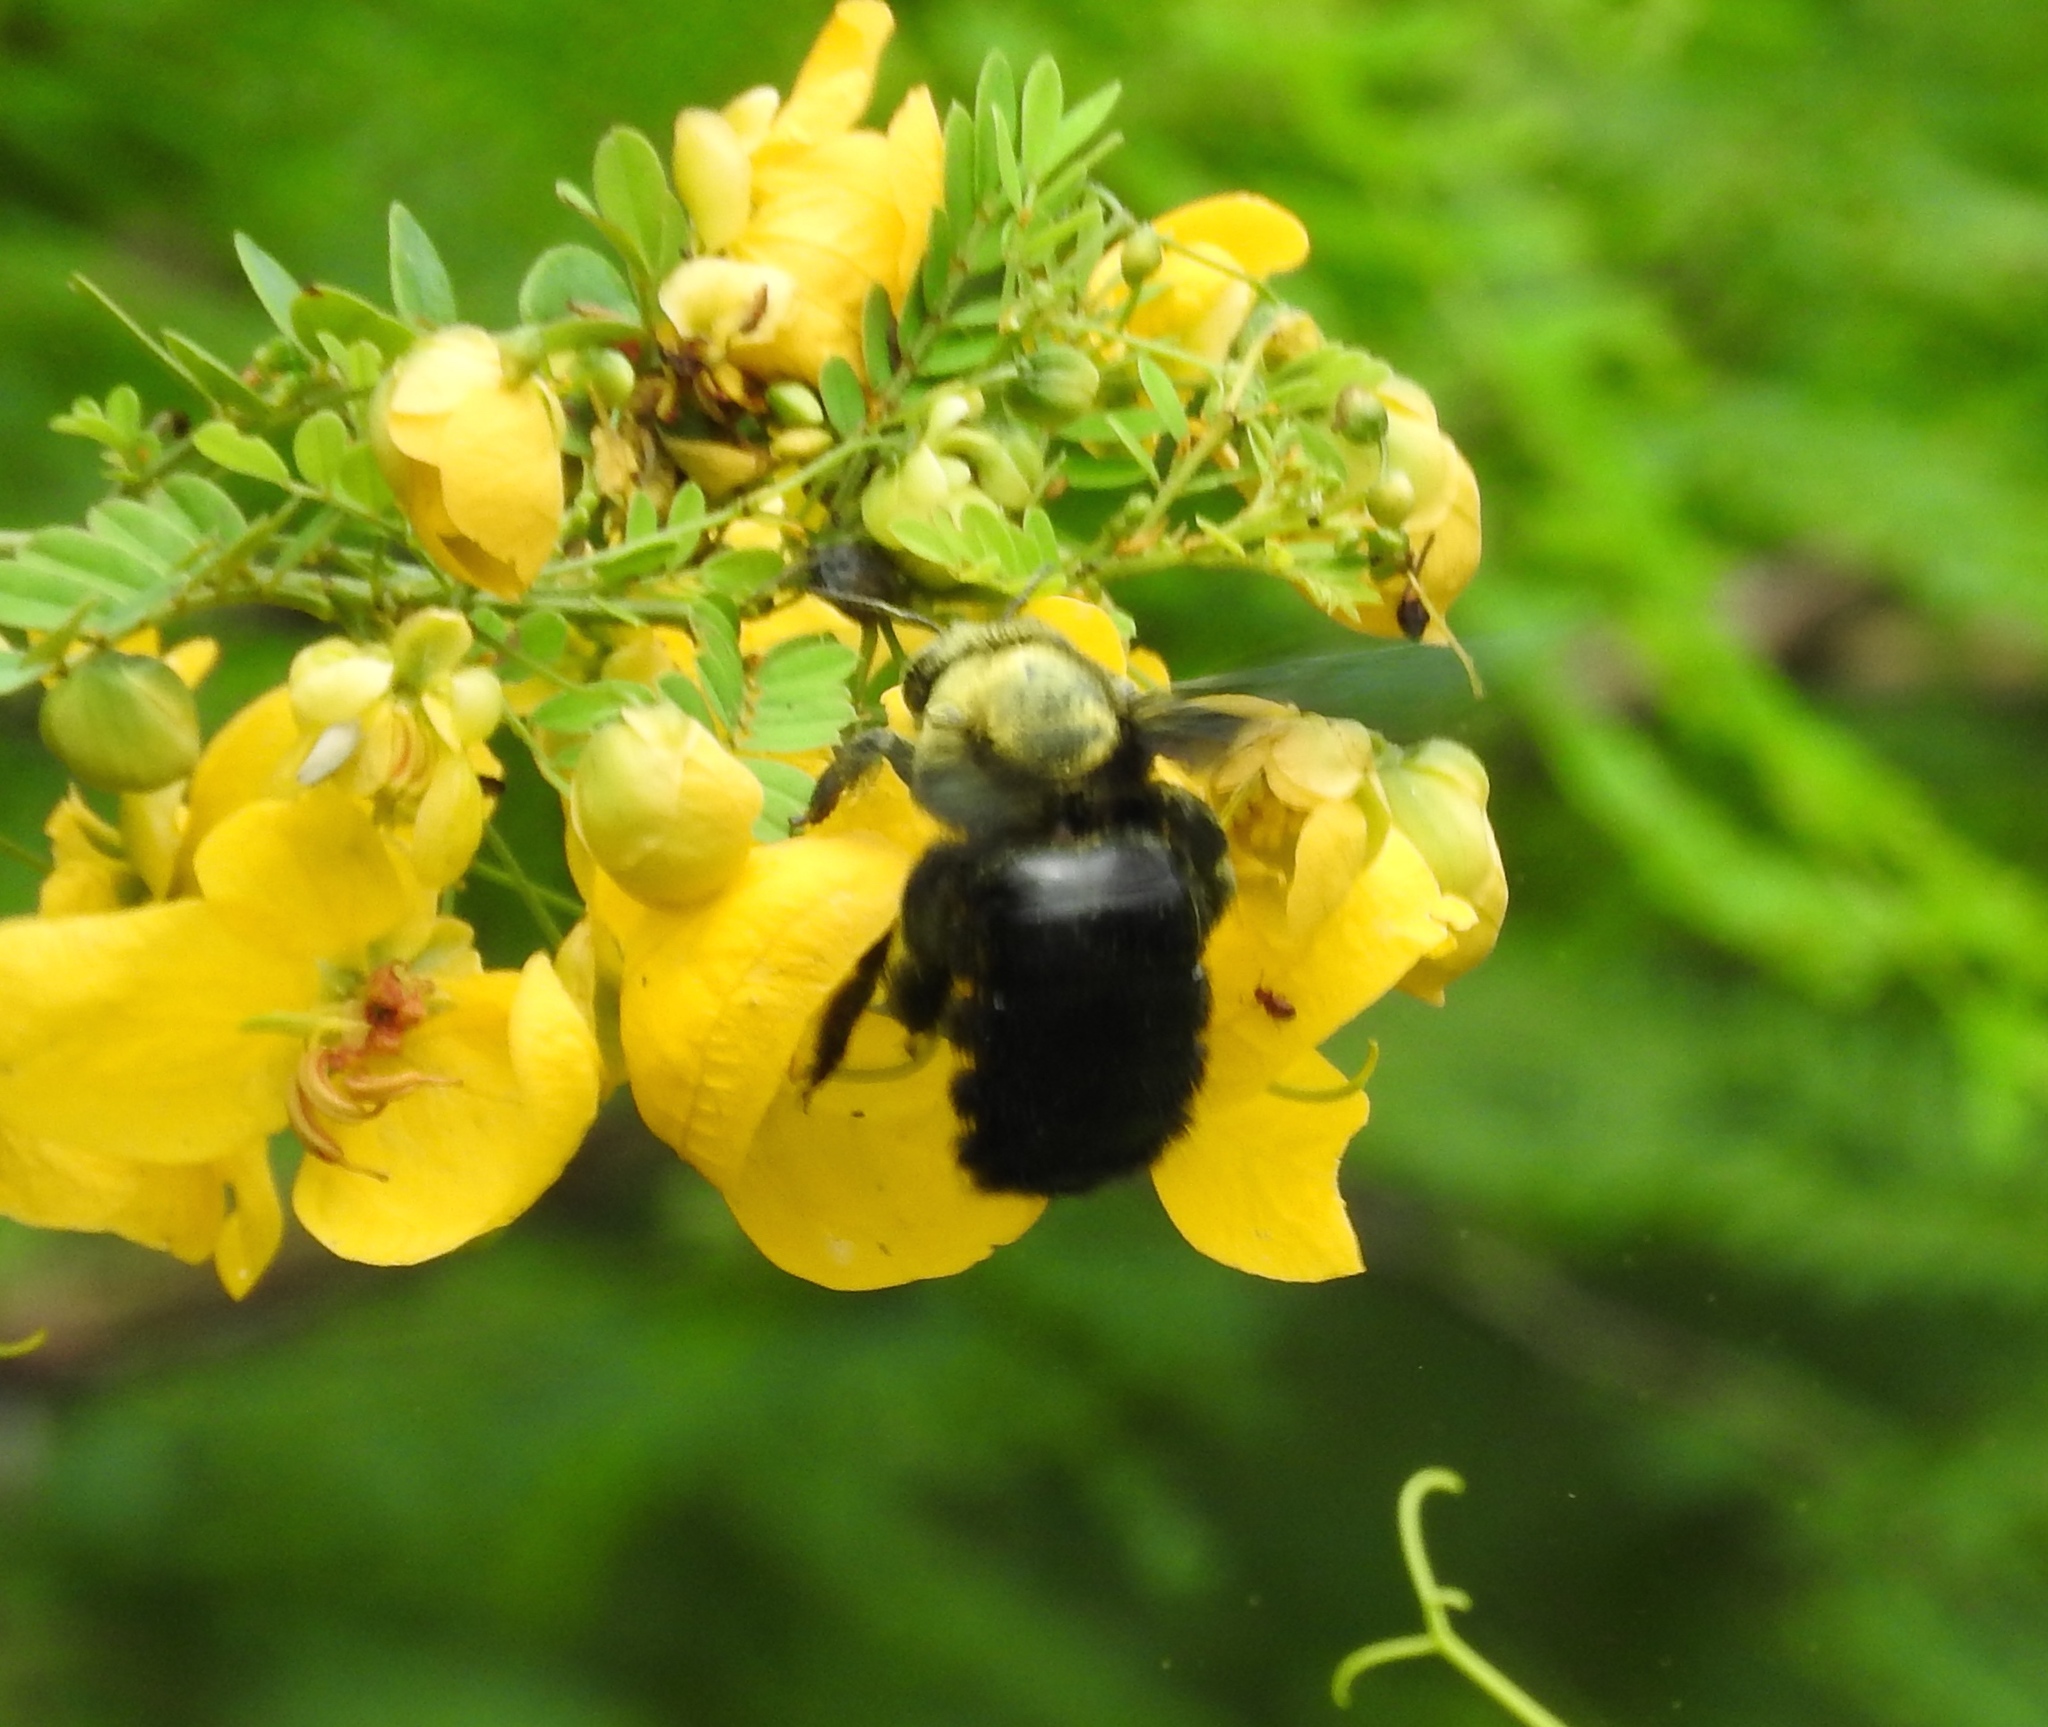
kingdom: Animalia
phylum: Arthropoda
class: Insecta
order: Hymenoptera
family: Apidae
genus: Xylocopa
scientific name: Xylocopa fimbriata
